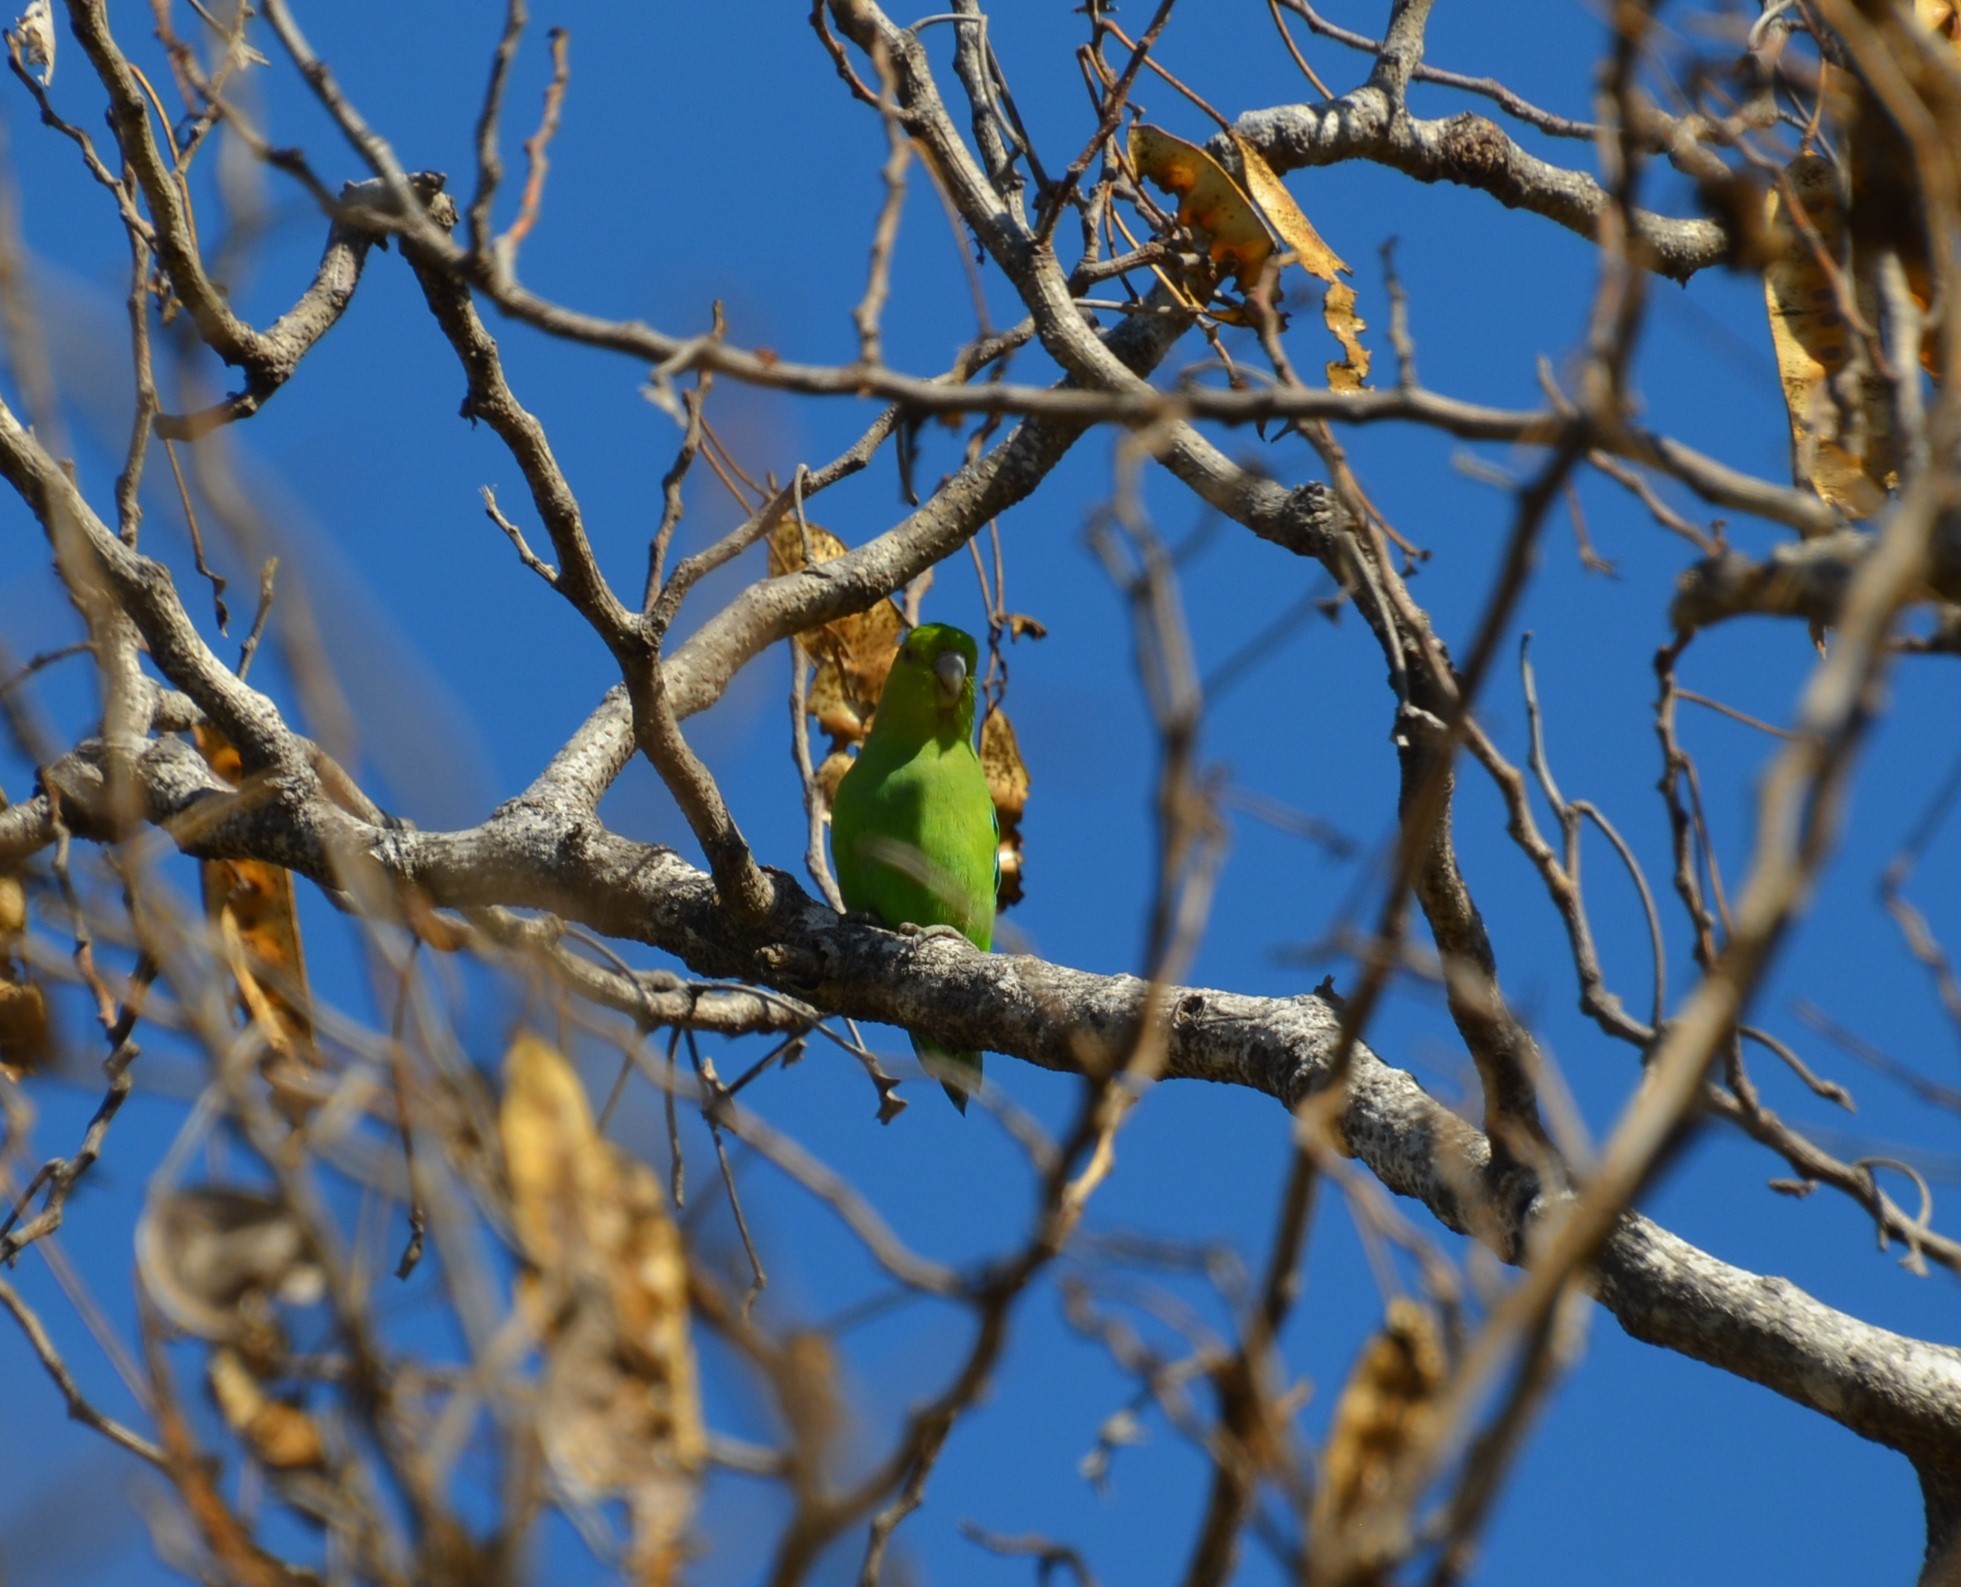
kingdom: Animalia
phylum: Chordata
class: Aves
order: Psittaciformes
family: Psittacidae
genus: Forpus
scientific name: Forpus cyanopygius
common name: Mexican parrotlet
